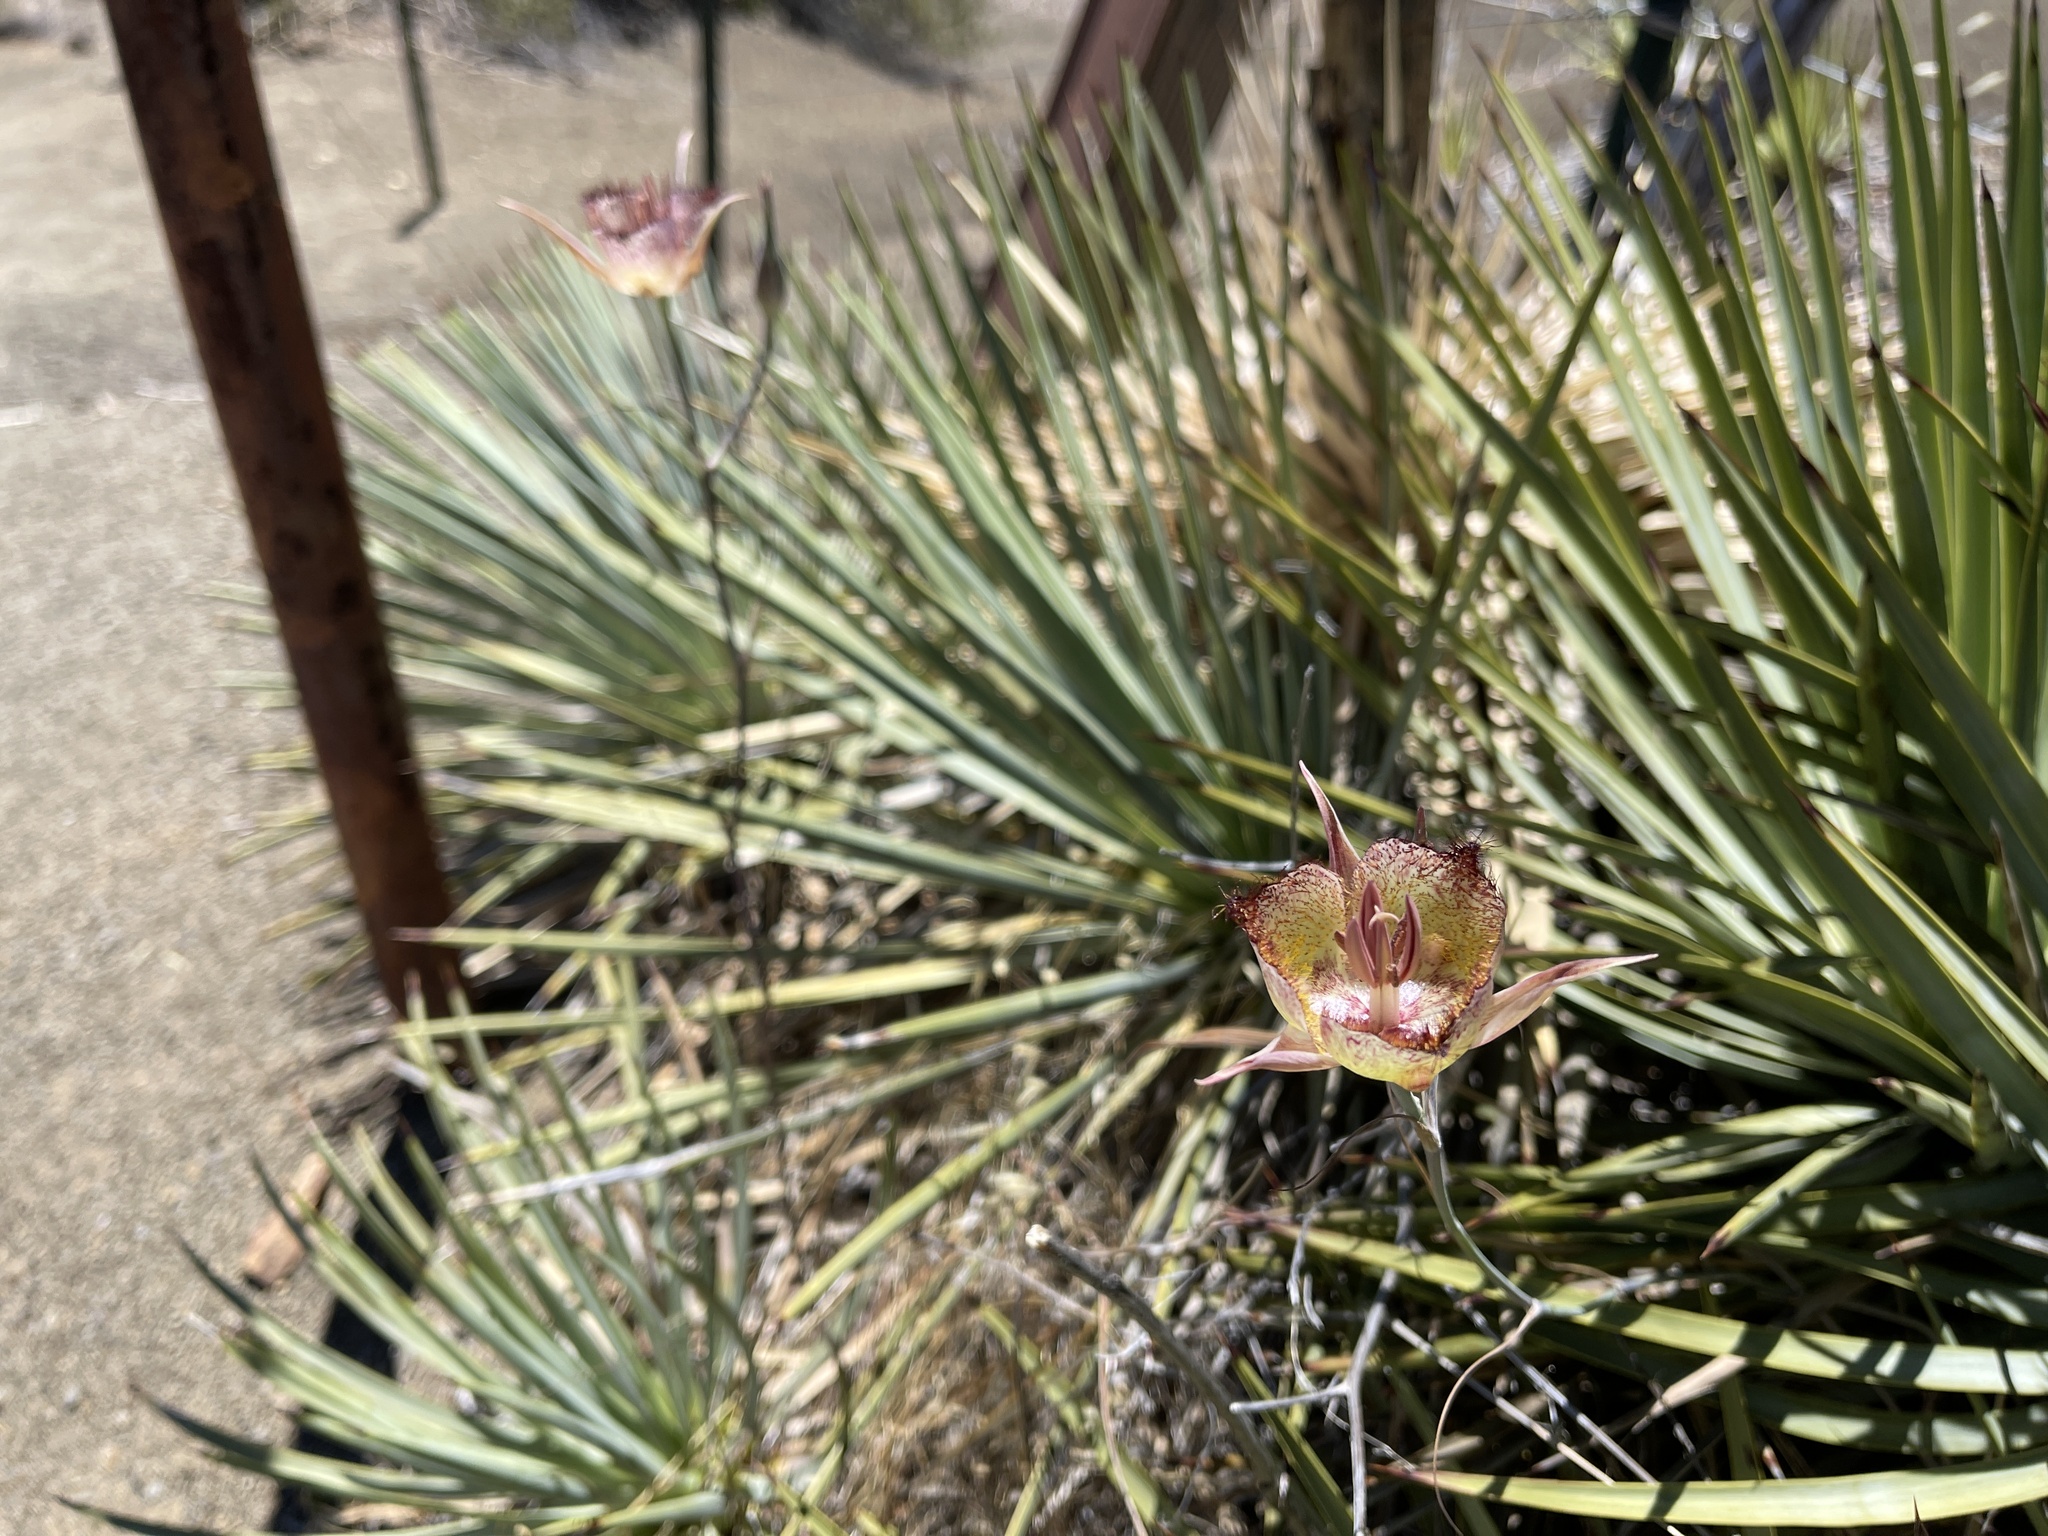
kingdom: Plantae
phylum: Tracheophyta
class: Liliopsida
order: Liliales
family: Liliaceae
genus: Calochortus
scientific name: Calochortus fimbriatus
